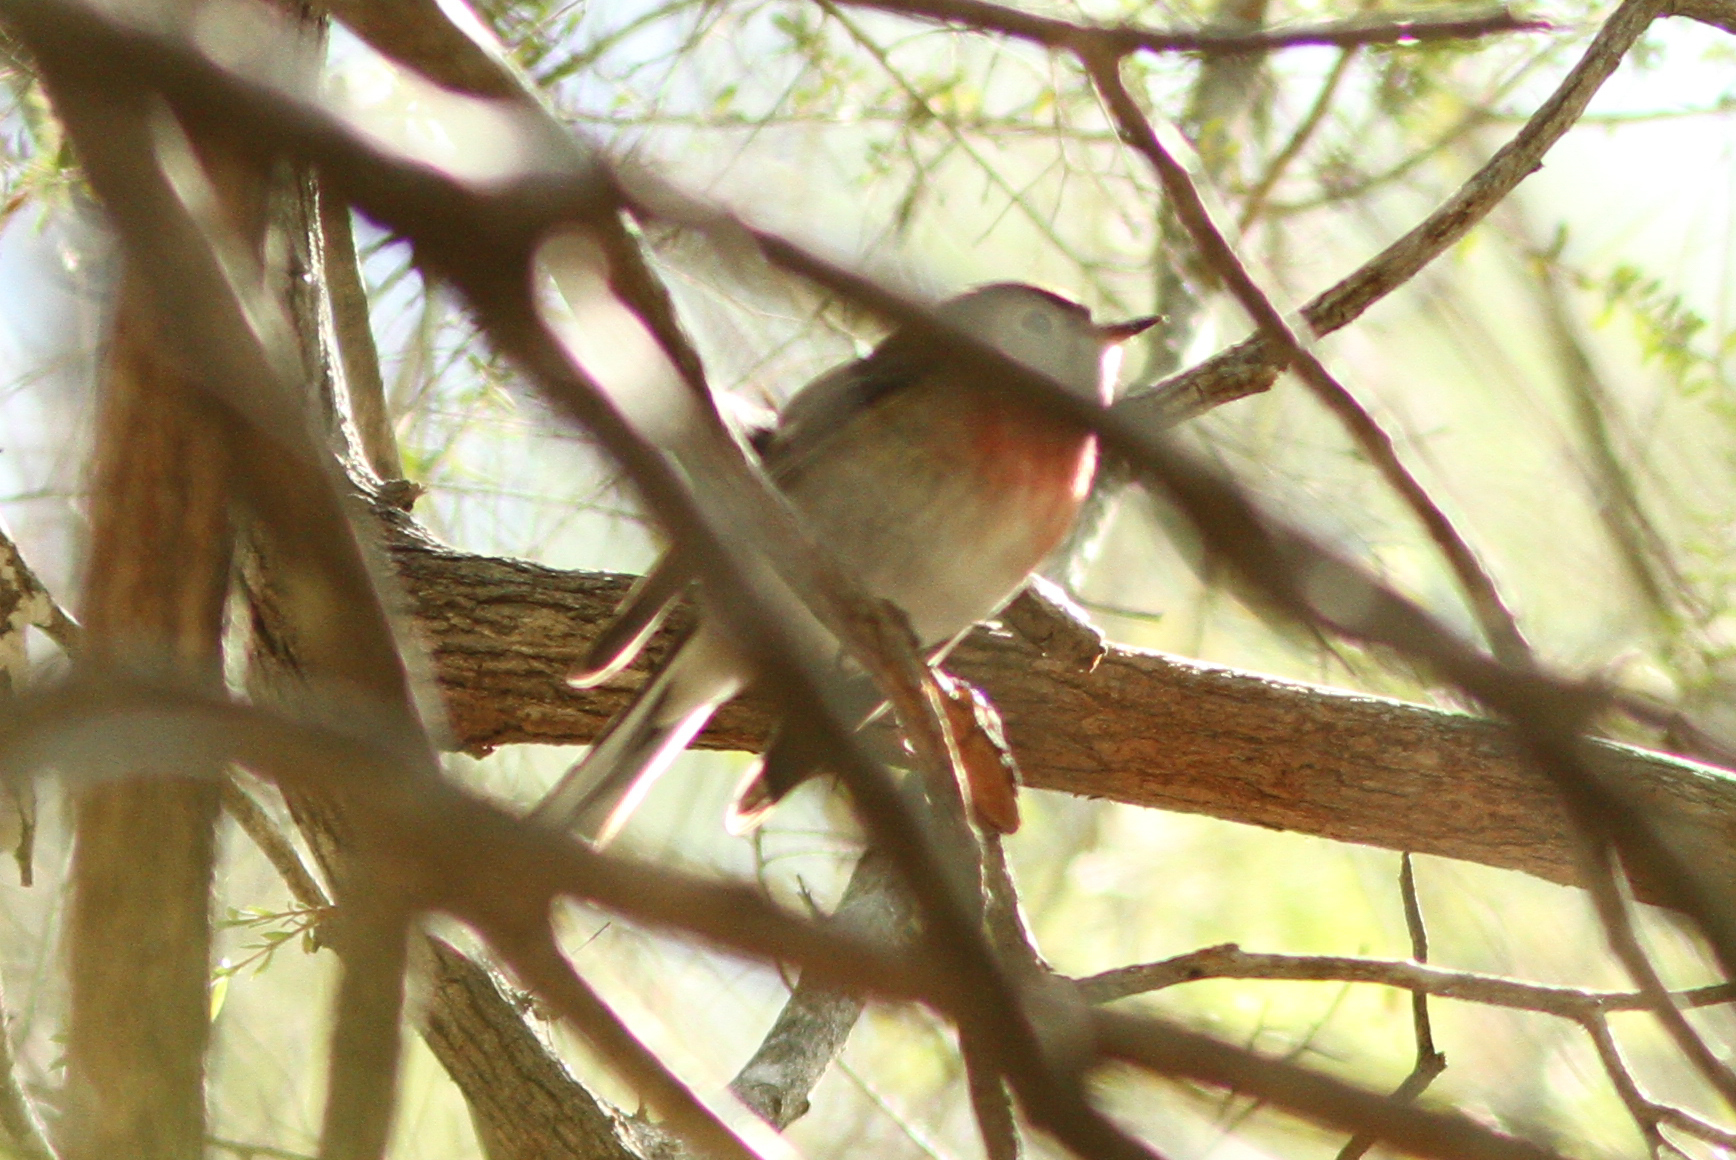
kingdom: Animalia
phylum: Chordata
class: Aves
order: Passeriformes
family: Petroicidae
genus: Petroica
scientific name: Petroica rosea
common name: Rose robin
